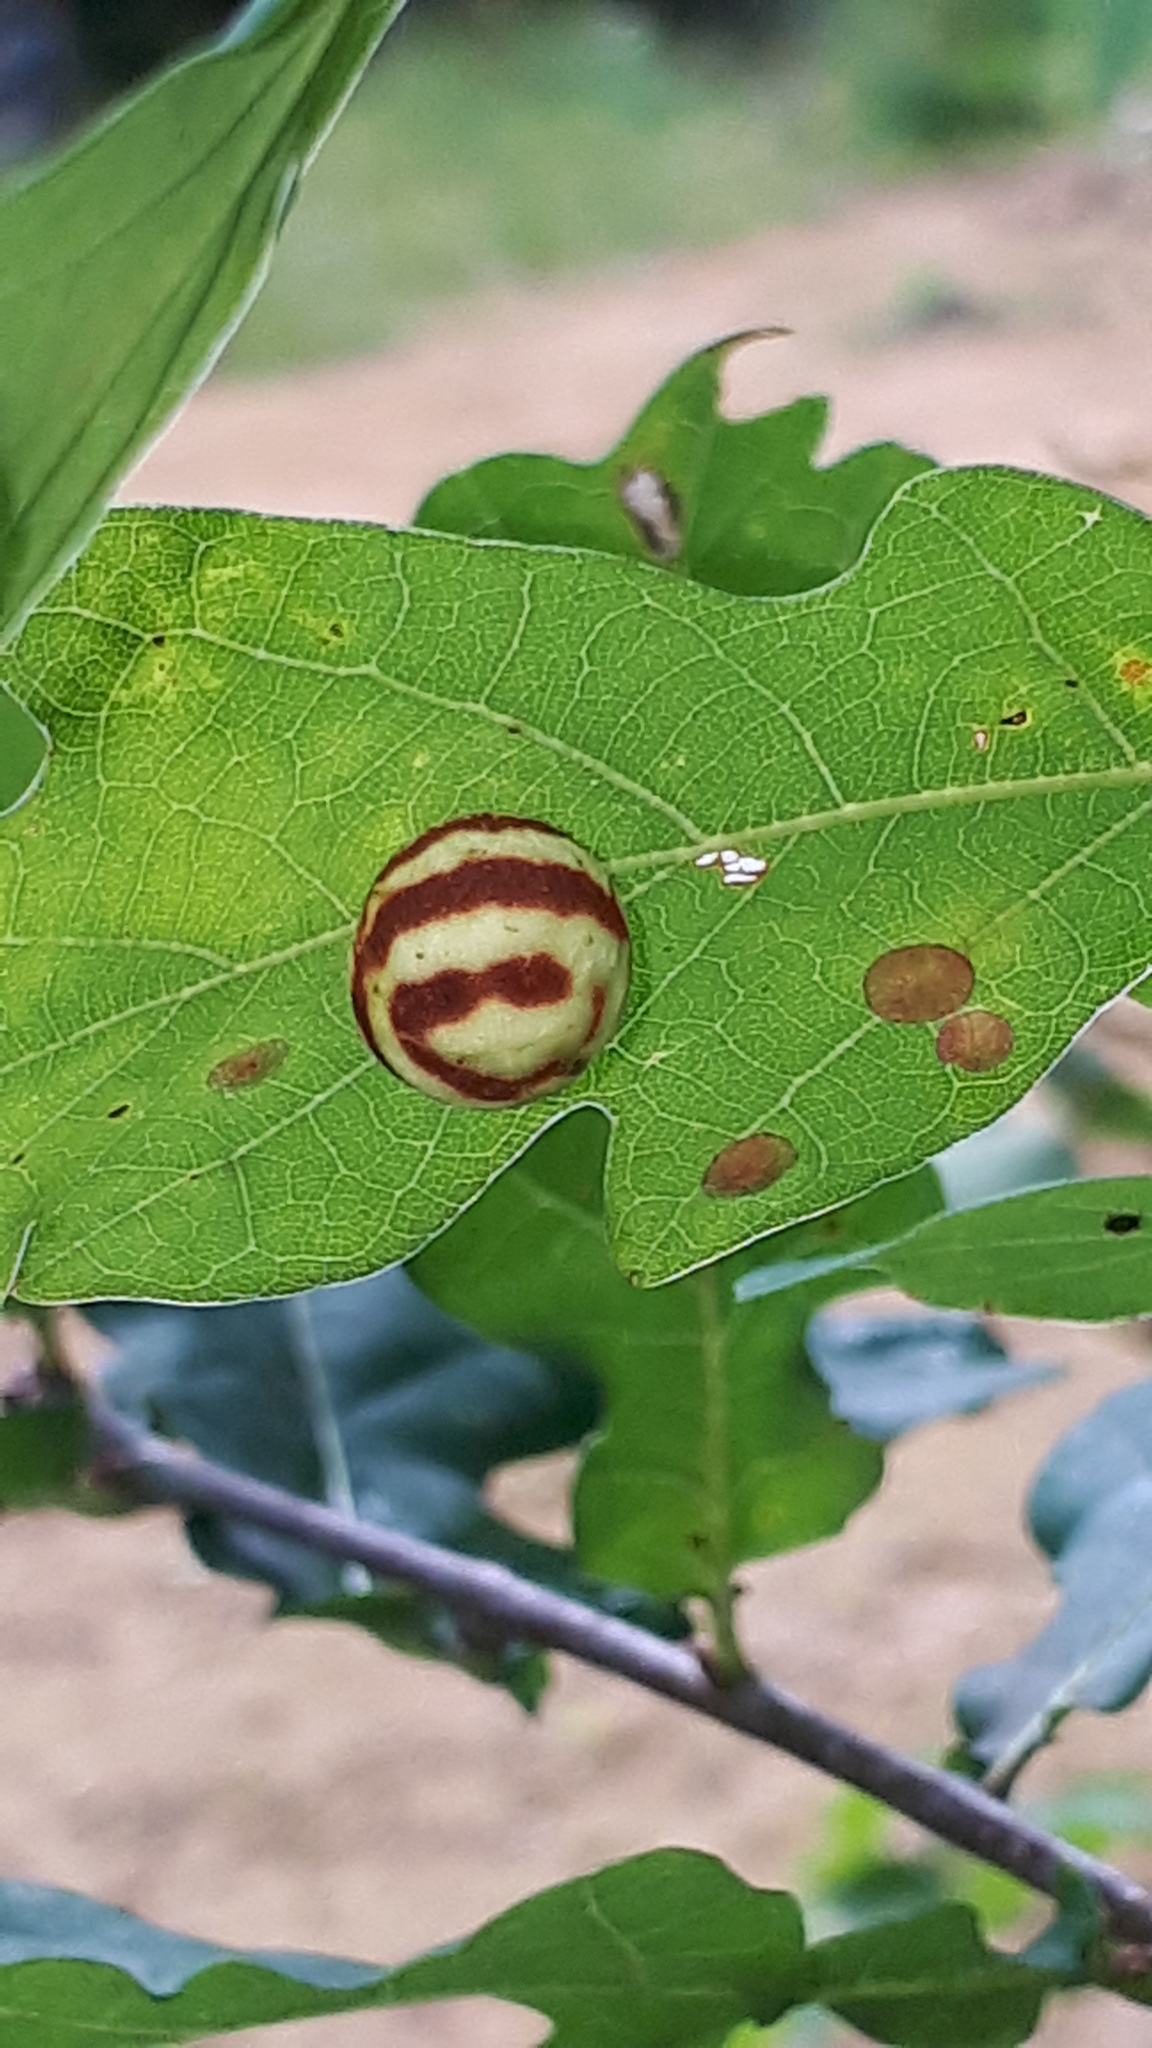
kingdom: Animalia
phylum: Arthropoda
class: Insecta
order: Hymenoptera
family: Cynipidae
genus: Cynips
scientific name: Cynips longiventris
